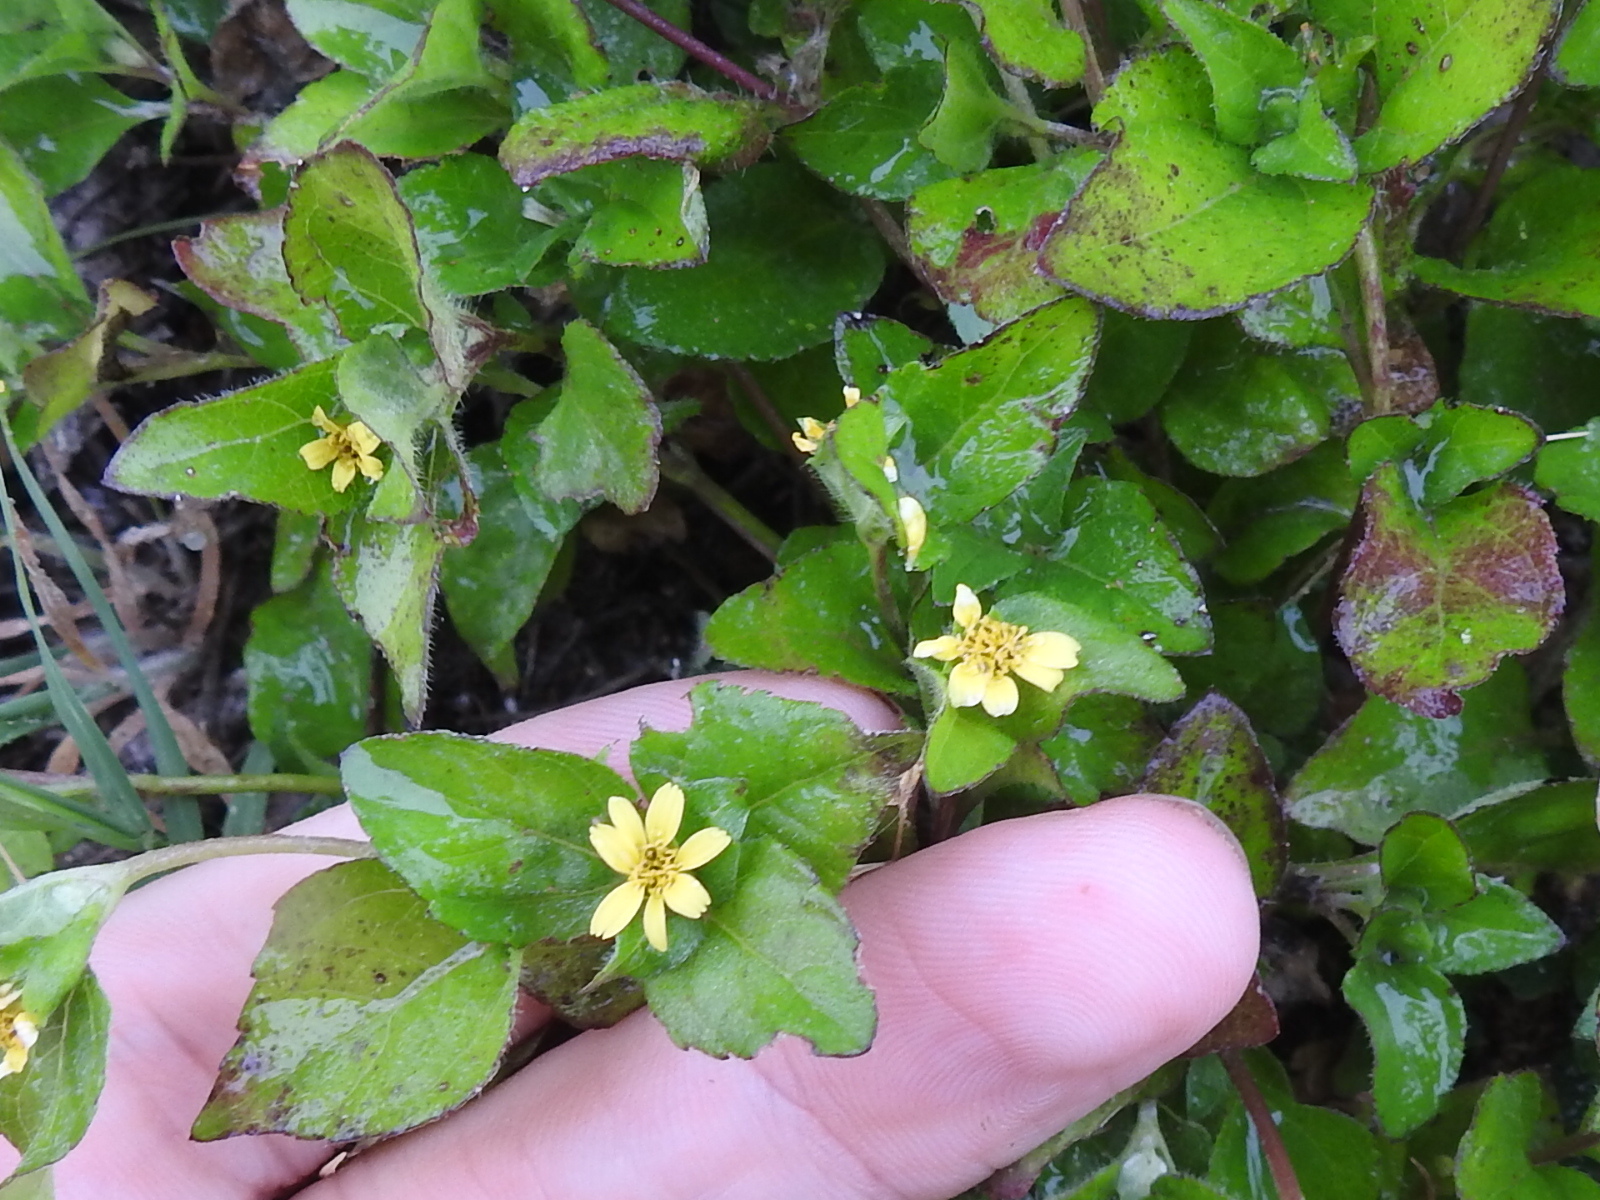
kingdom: Plantae
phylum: Tracheophyta
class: Magnoliopsida
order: Asterales
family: Asteraceae
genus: Calyptocarpus
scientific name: Calyptocarpus vialis
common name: Straggler daisy
